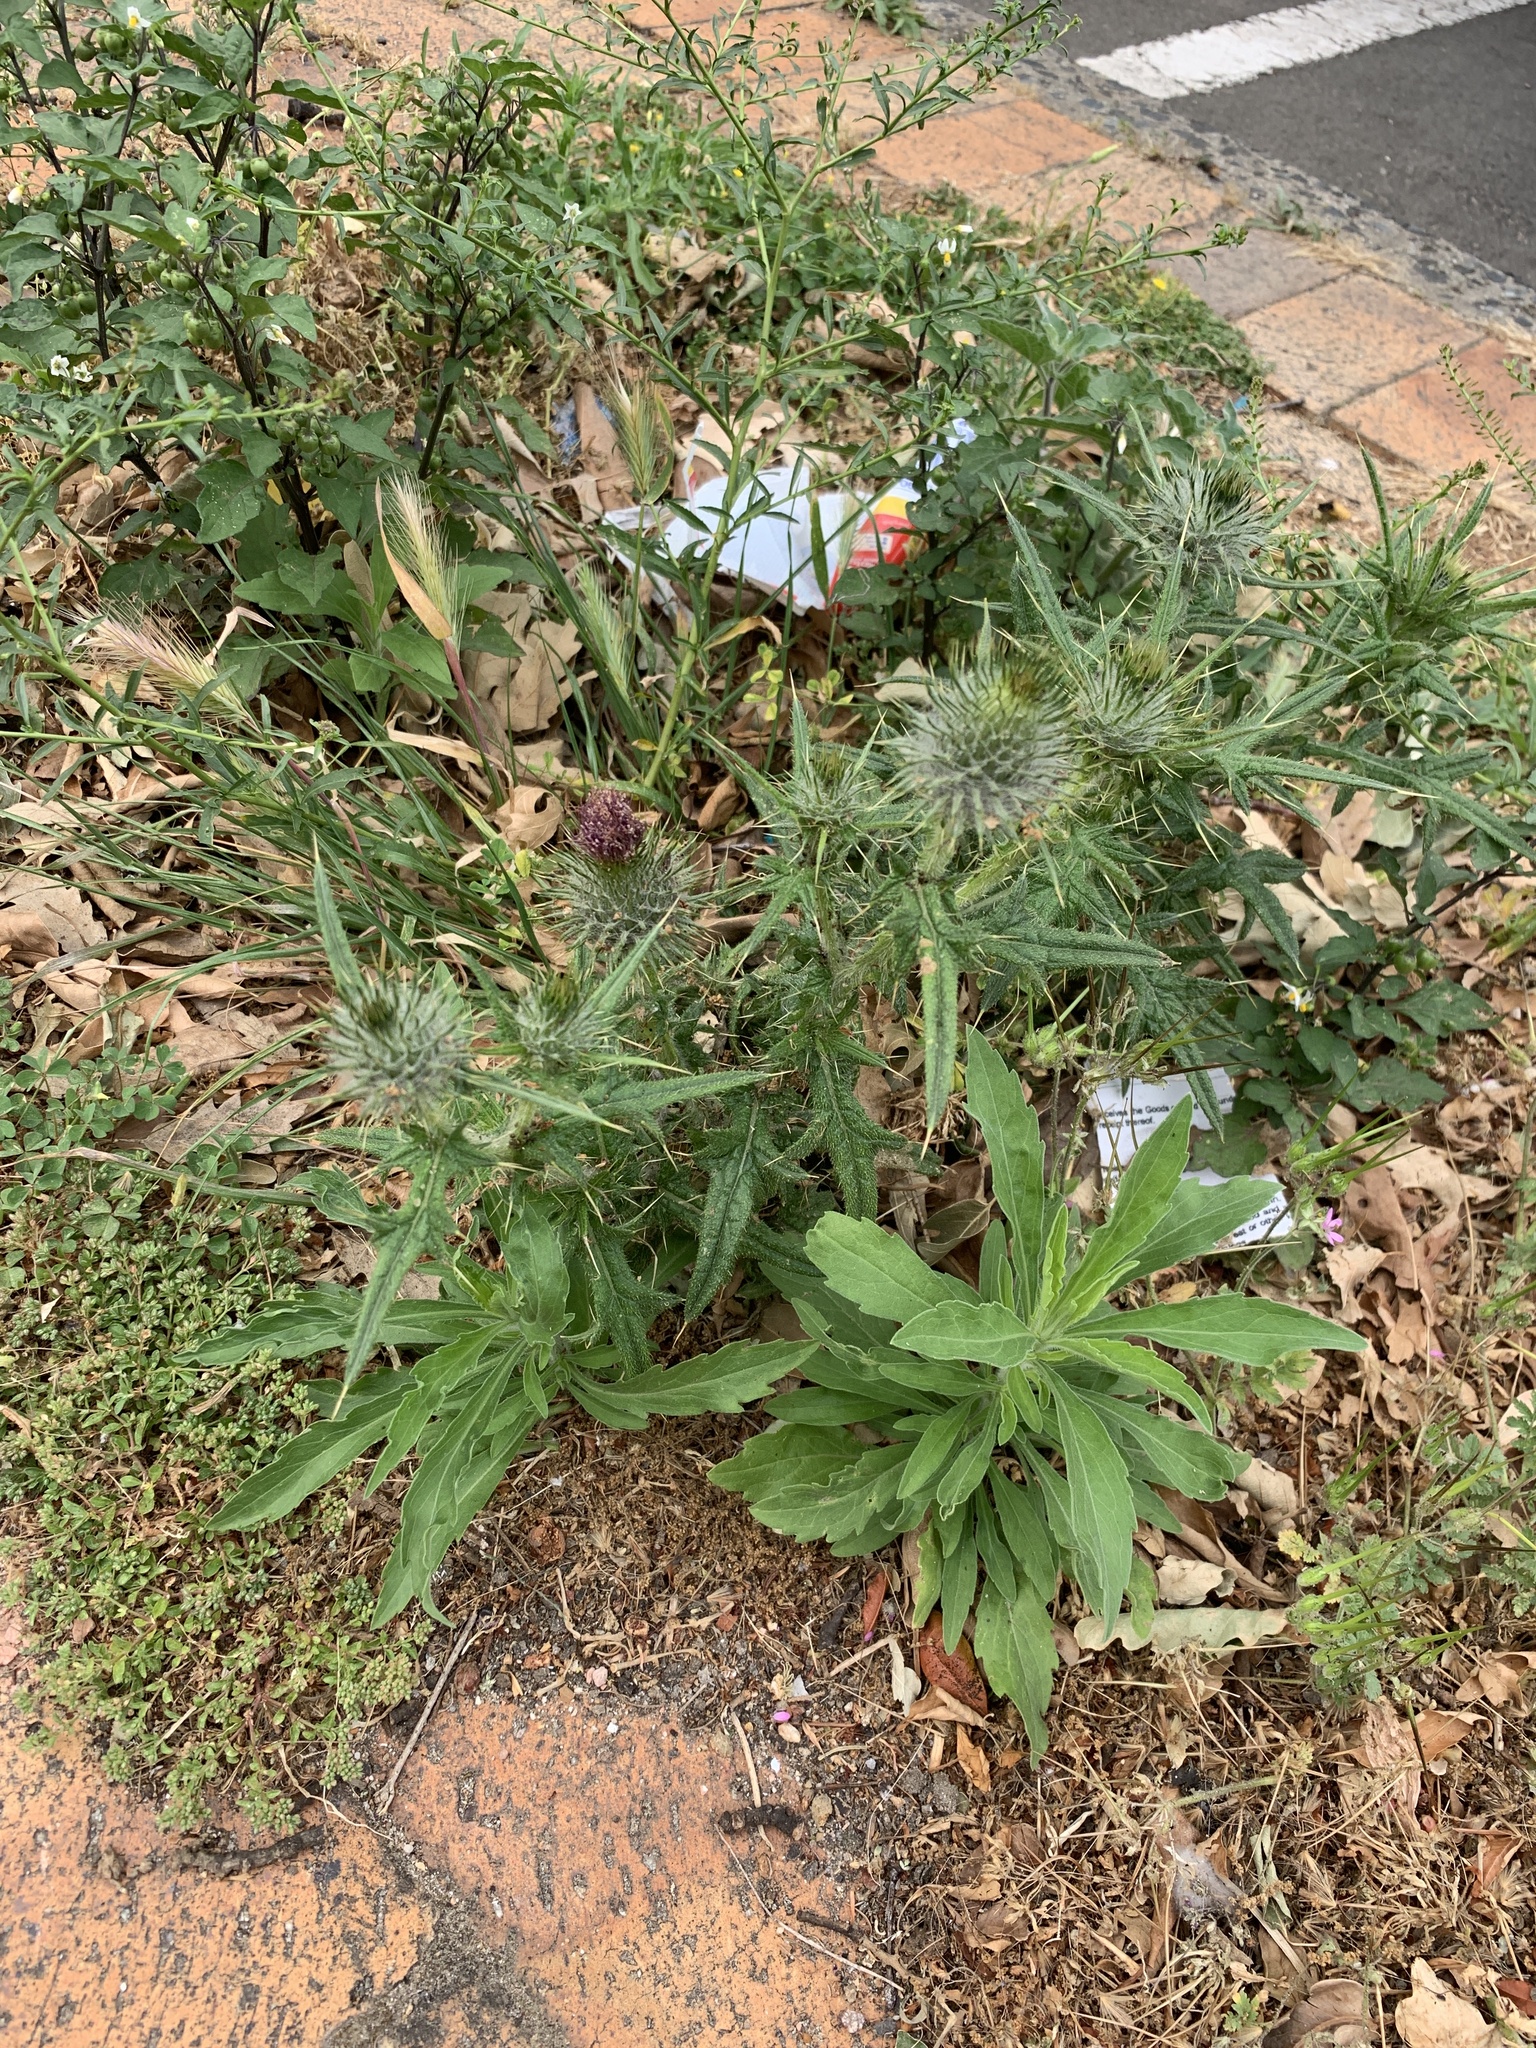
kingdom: Plantae
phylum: Tracheophyta
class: Magnoliopsida
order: Asterales
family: Asteraceae
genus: Cirsium
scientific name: Cirsium vulgare
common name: Bull thistle
